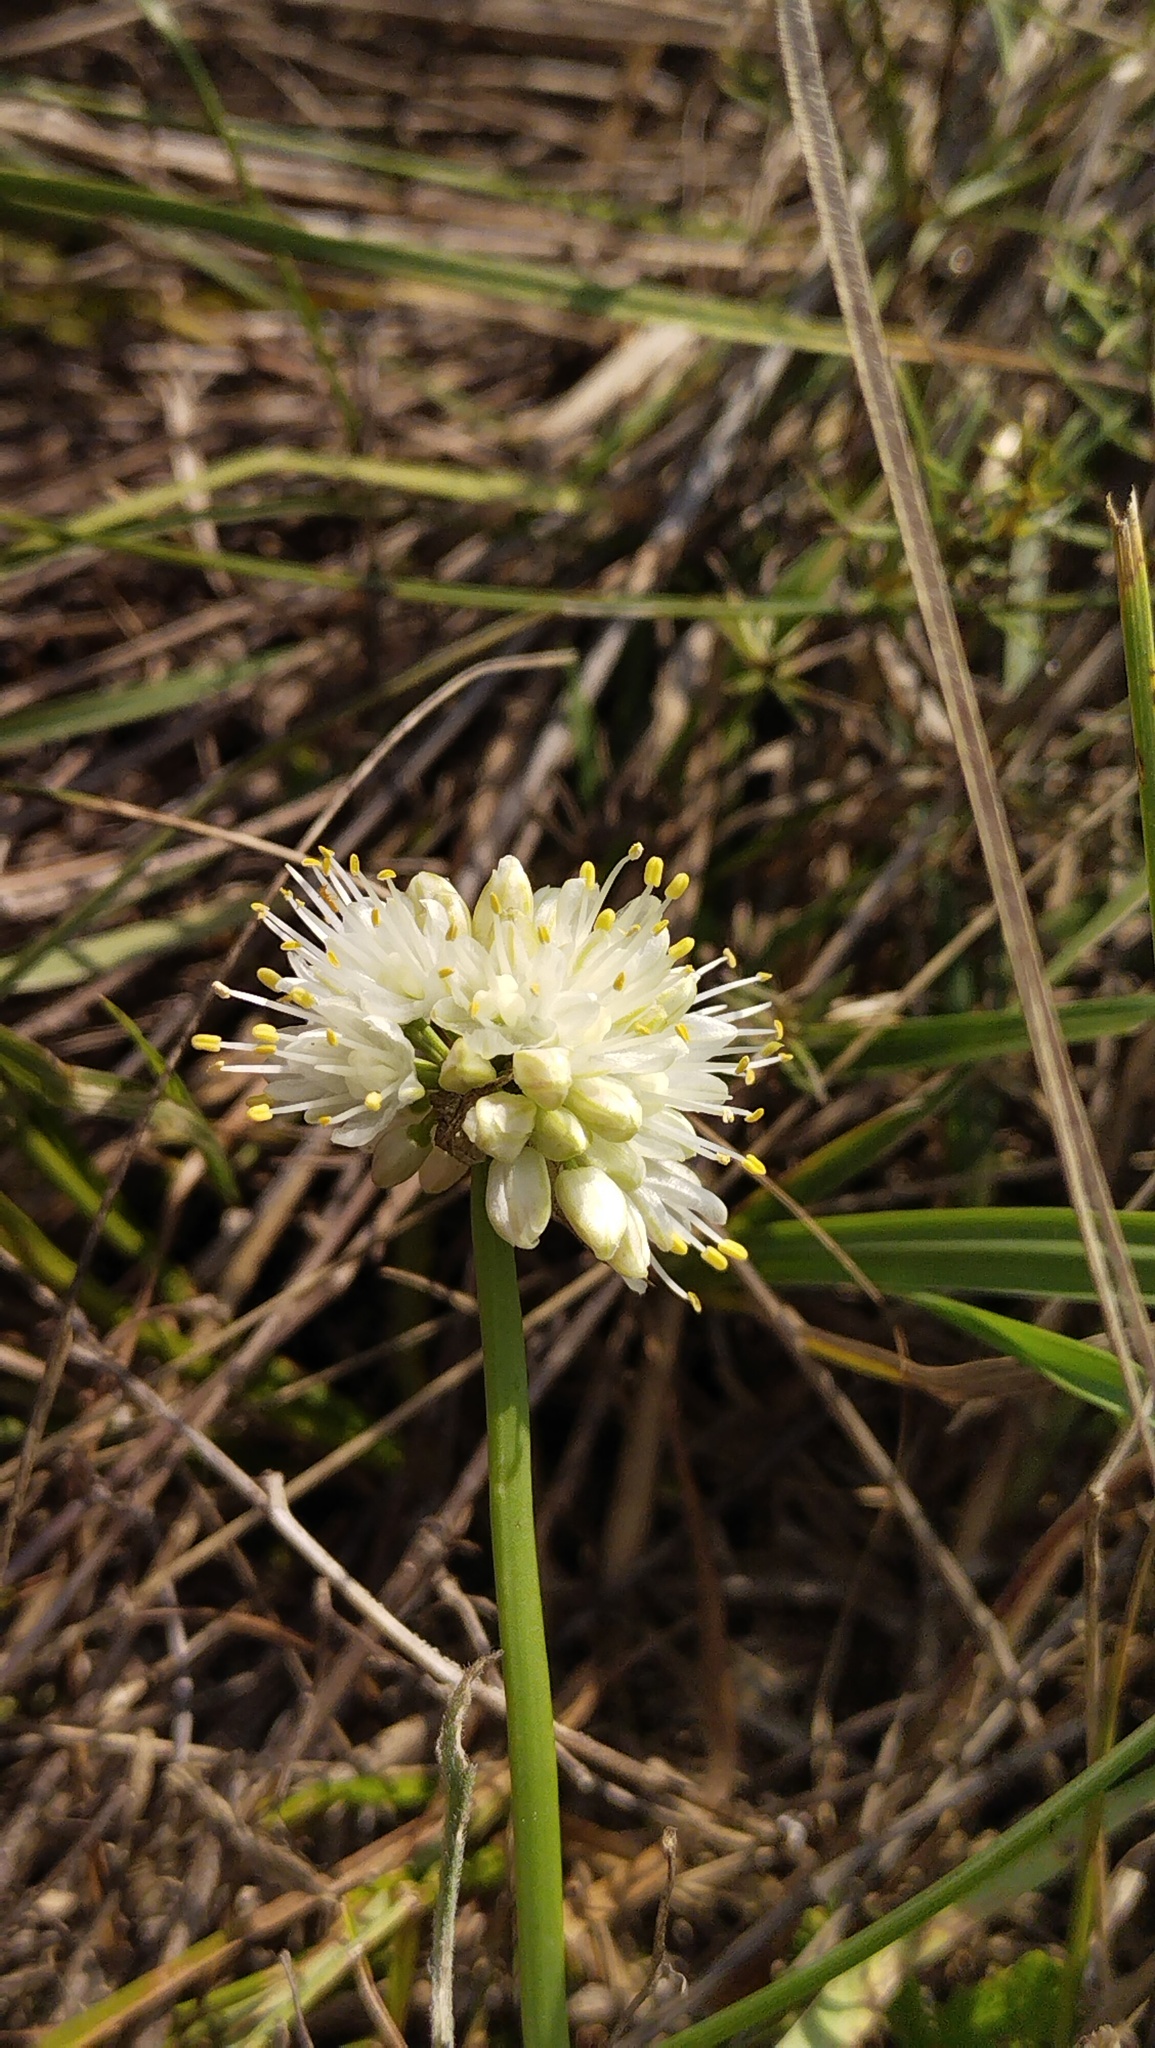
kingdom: Plantae
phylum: Tracheophyta
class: Liliopsida
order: Asparagales
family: Amaryllidaceae
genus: Allium
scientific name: Allium stellerianum
